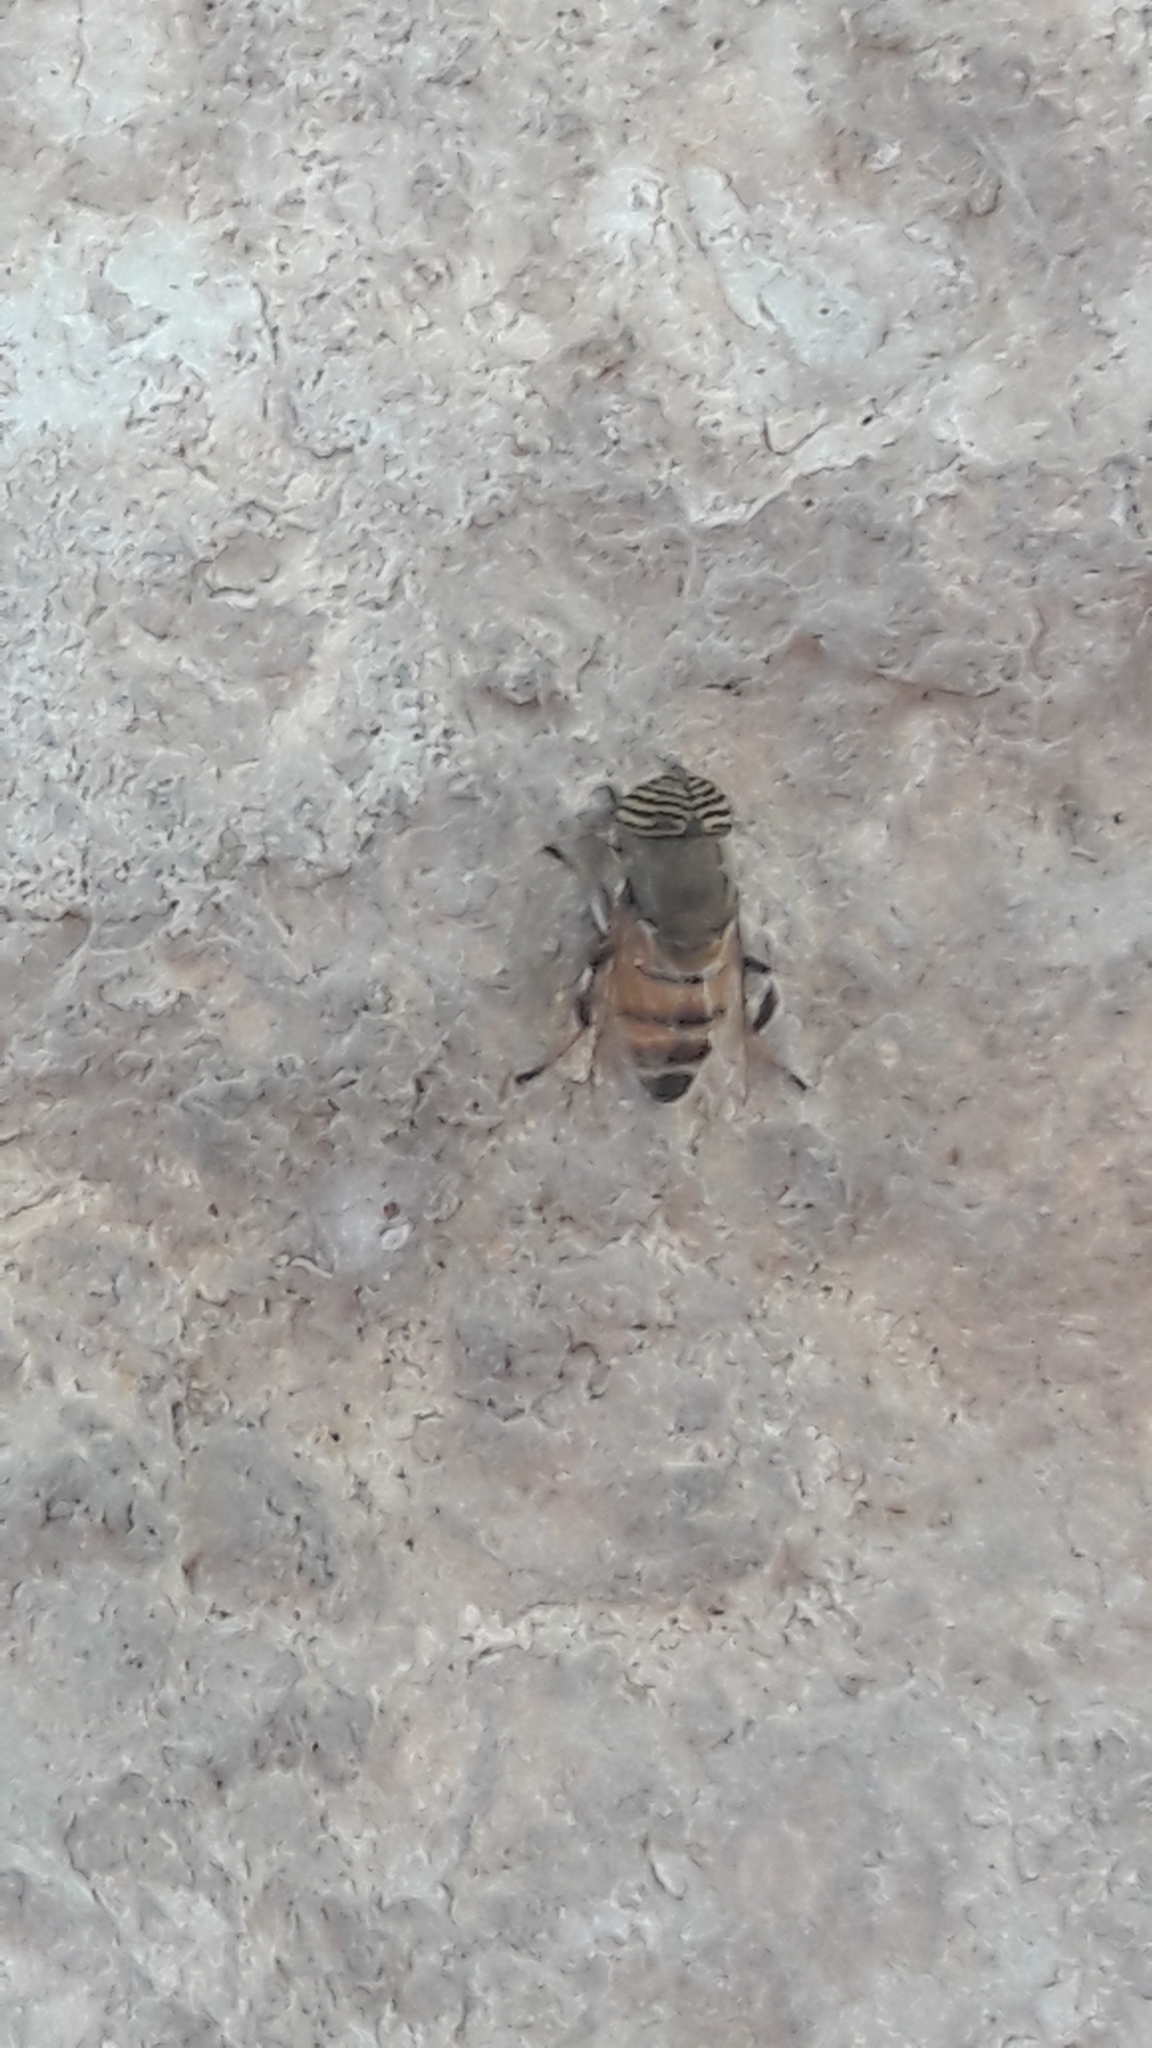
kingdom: Animalia
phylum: Arthropoda
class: Insecta
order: Diptera
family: Syrphidae
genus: Eristalinus
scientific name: Eristalinus taeniops
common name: Syrphid fly
